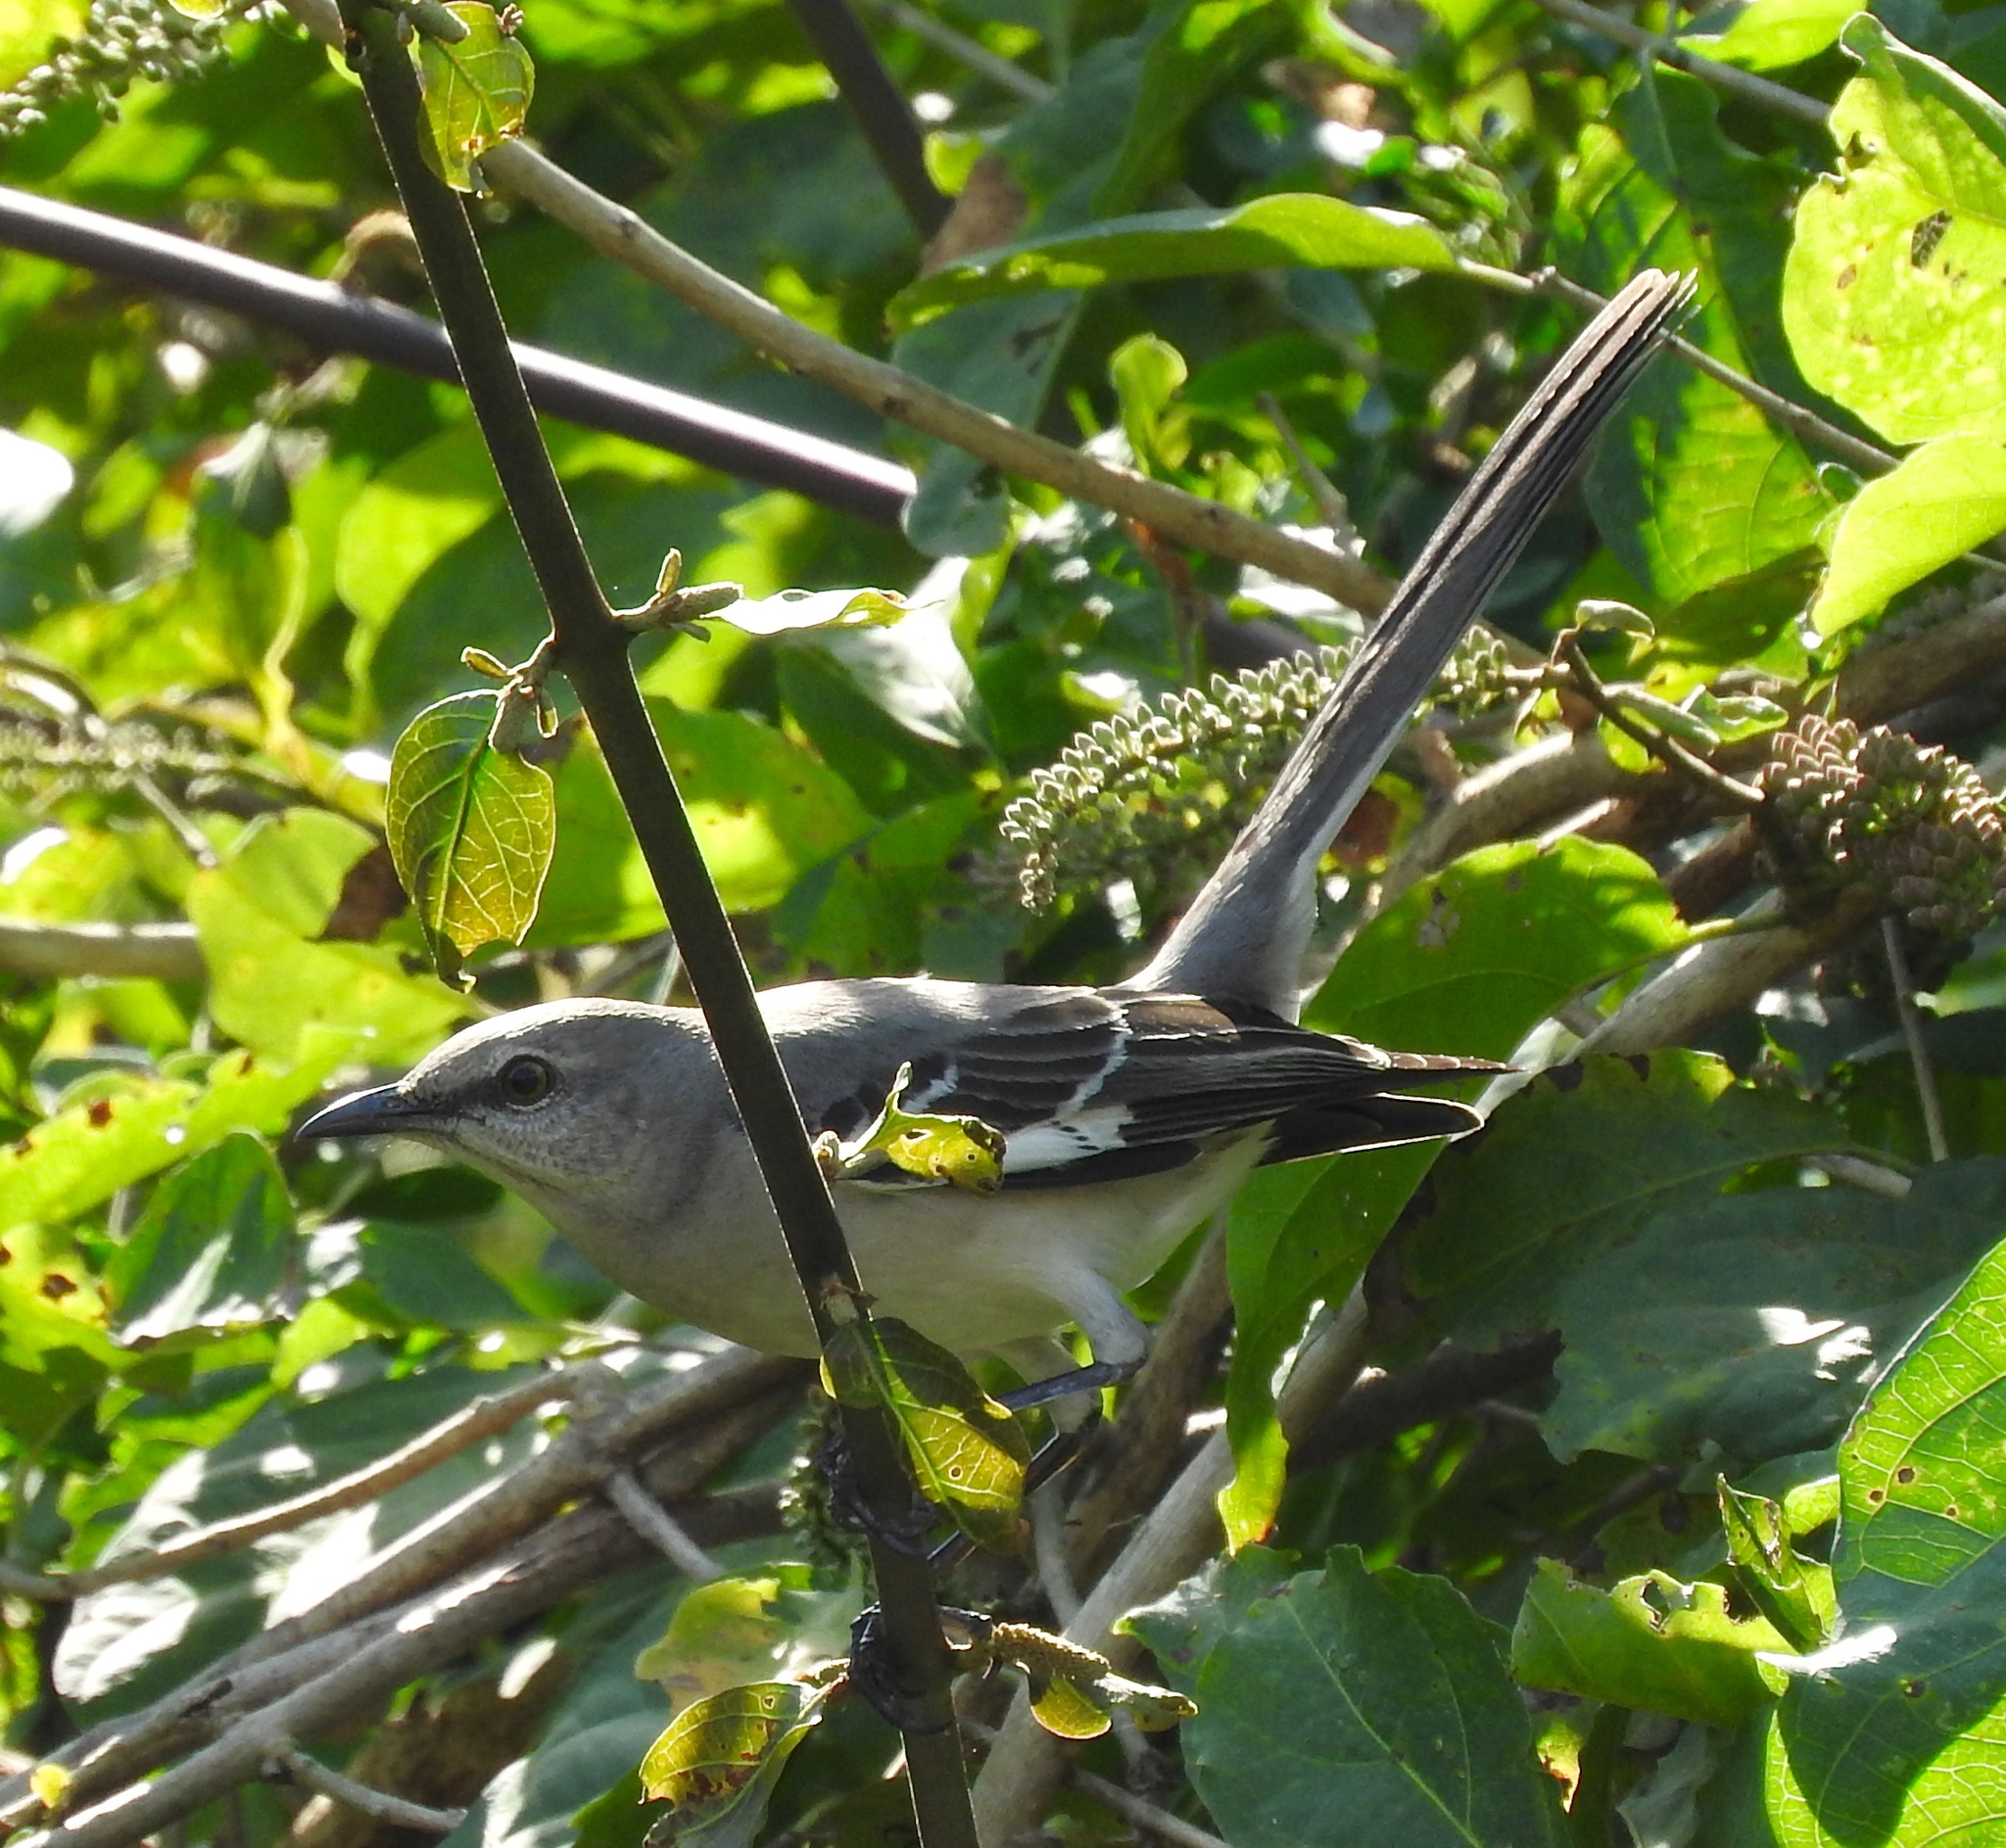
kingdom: Animalia
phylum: Chordata
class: Aves
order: Passeriformes
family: Mimidae
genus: Mimus
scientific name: Mimus polyglottos
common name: Northern mockingbird
